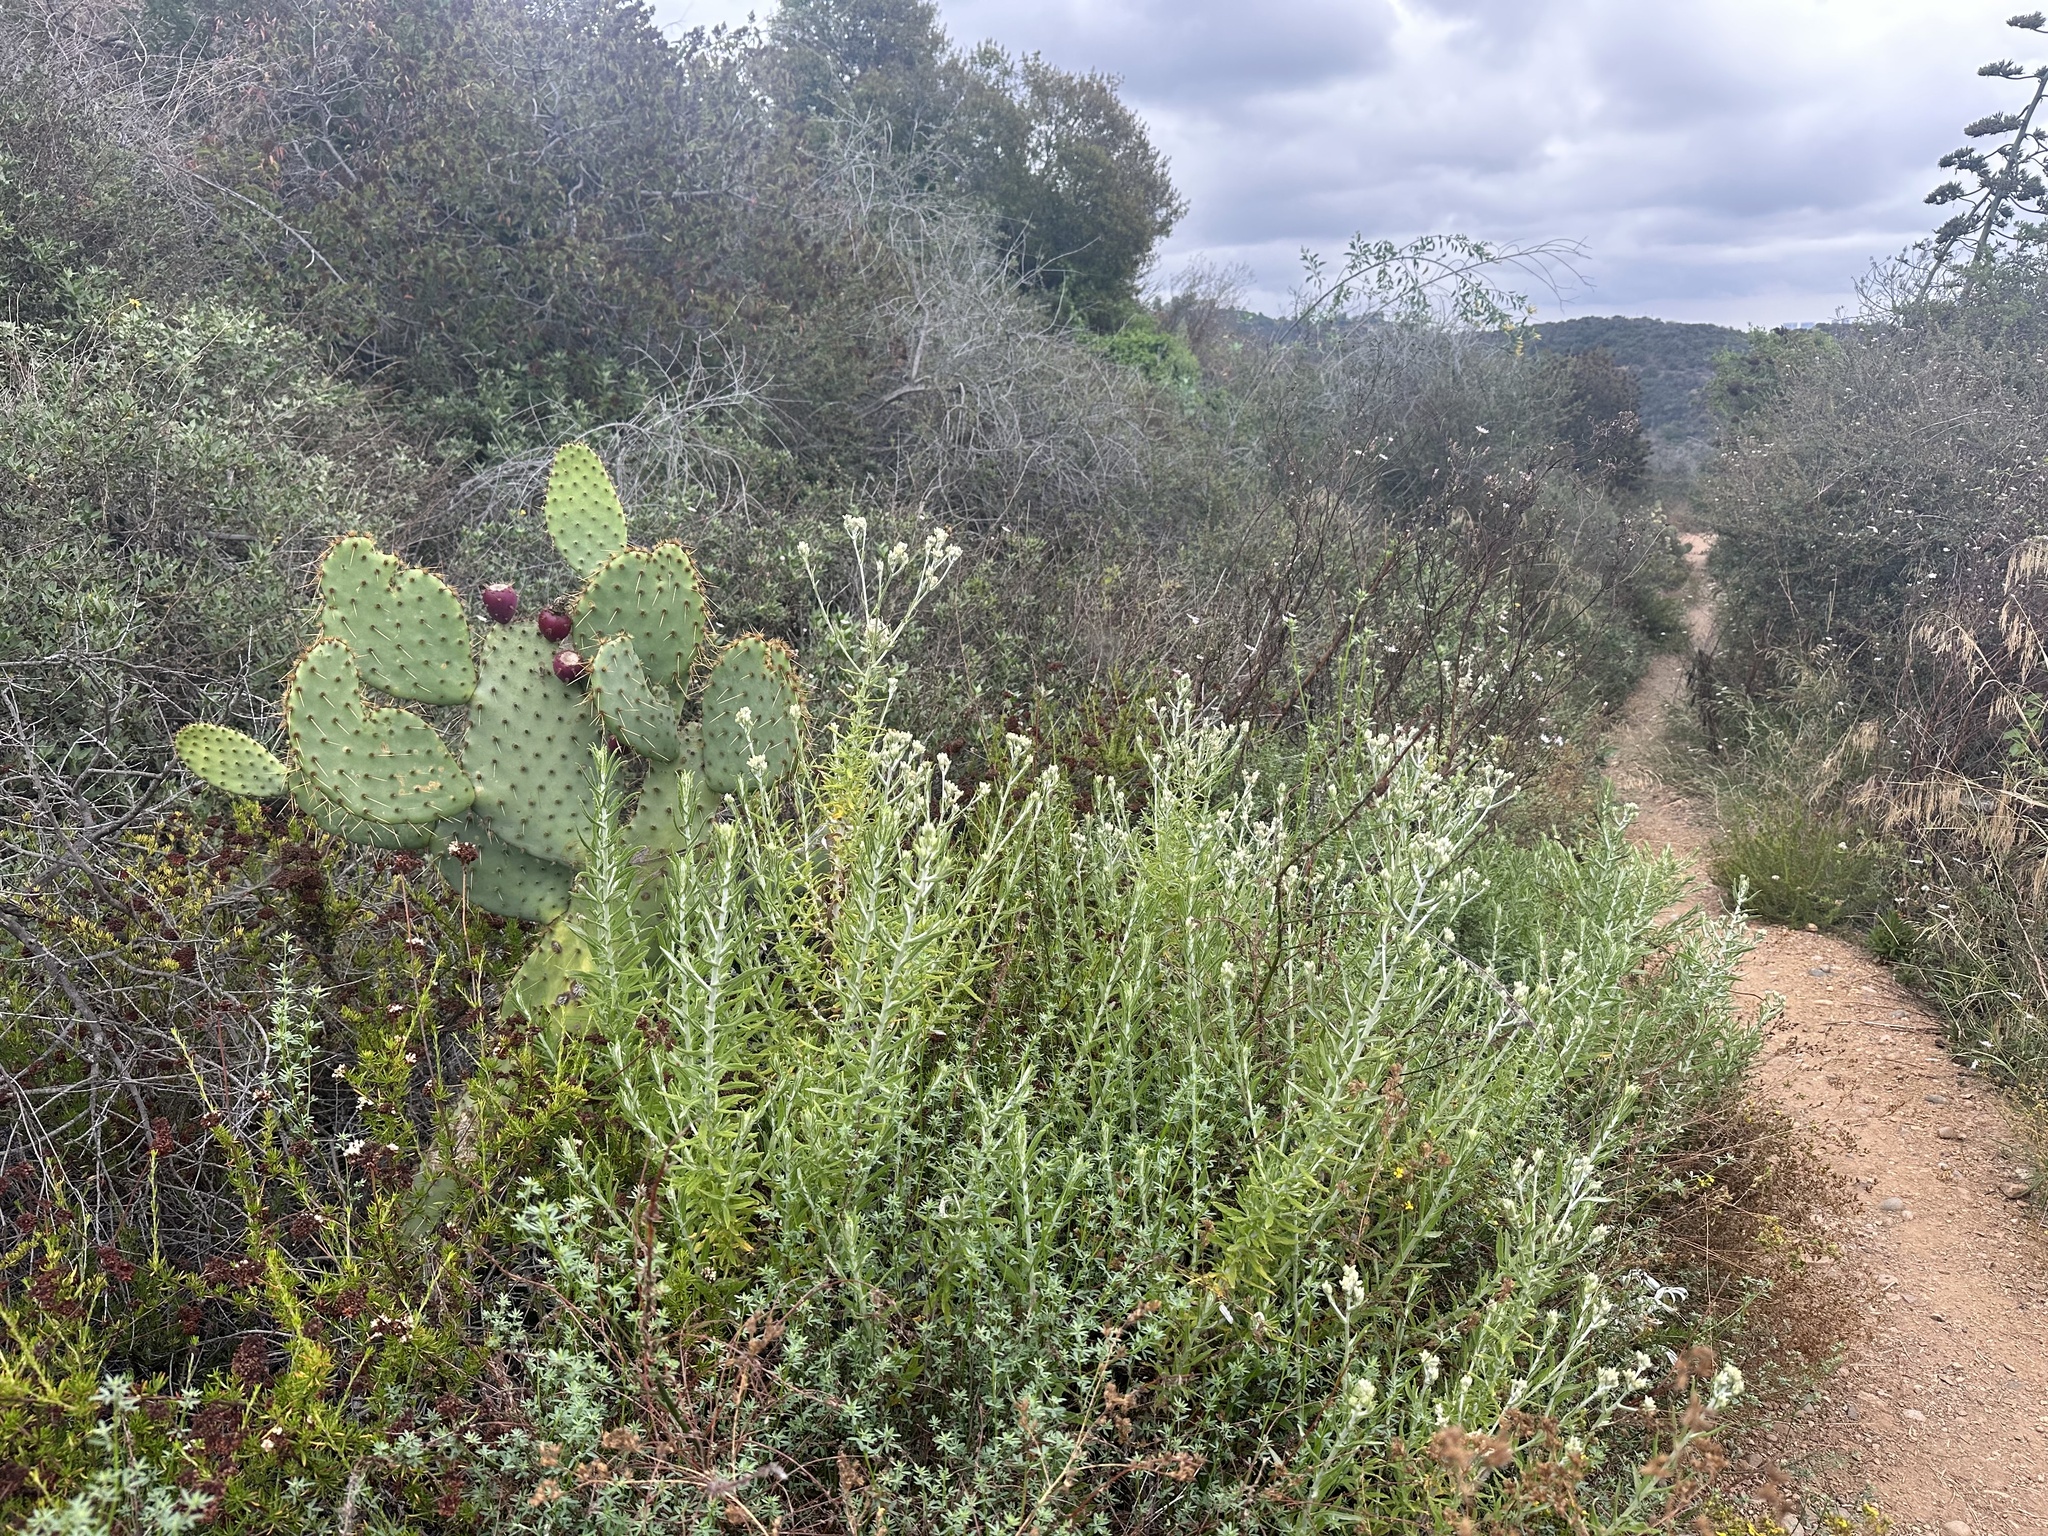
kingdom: Plantae
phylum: Tracheophyta
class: Magnoliopsida
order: Asterales
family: Asteraceae
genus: Pseudognaphalium
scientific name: Pseudognaphalium biolettii
